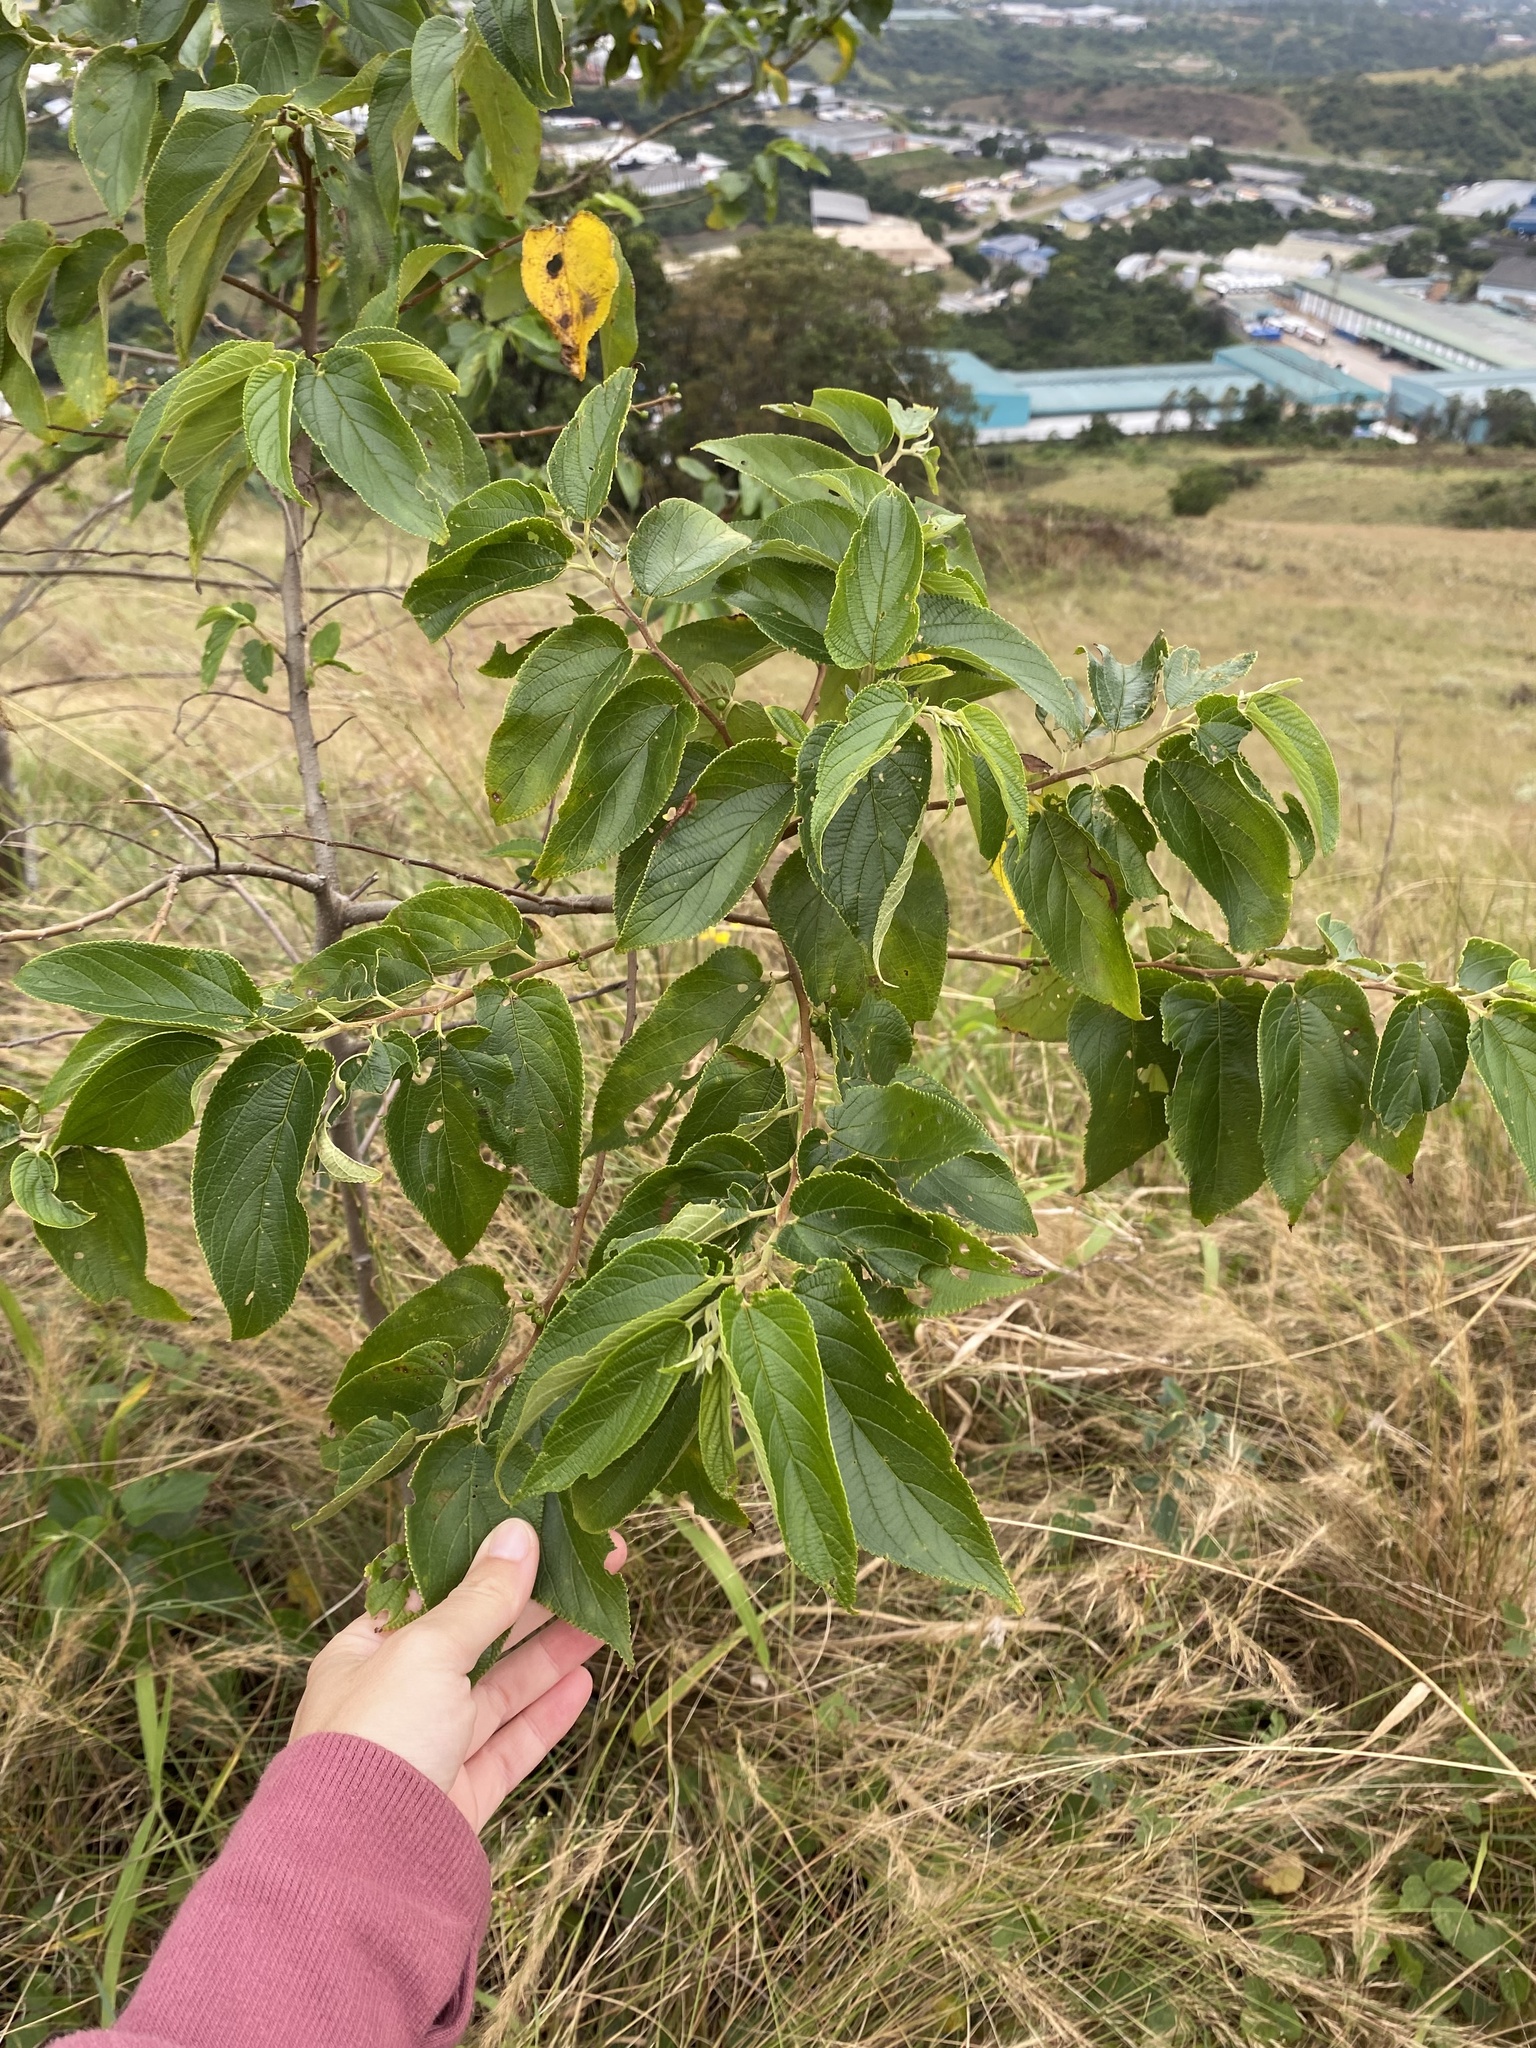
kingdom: Plantae
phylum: Tracheophyta
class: Magnoliopsida
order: Rosales
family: Cannabaceae
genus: Trema
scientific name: Trema orientale
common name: Indian charcoal tree
